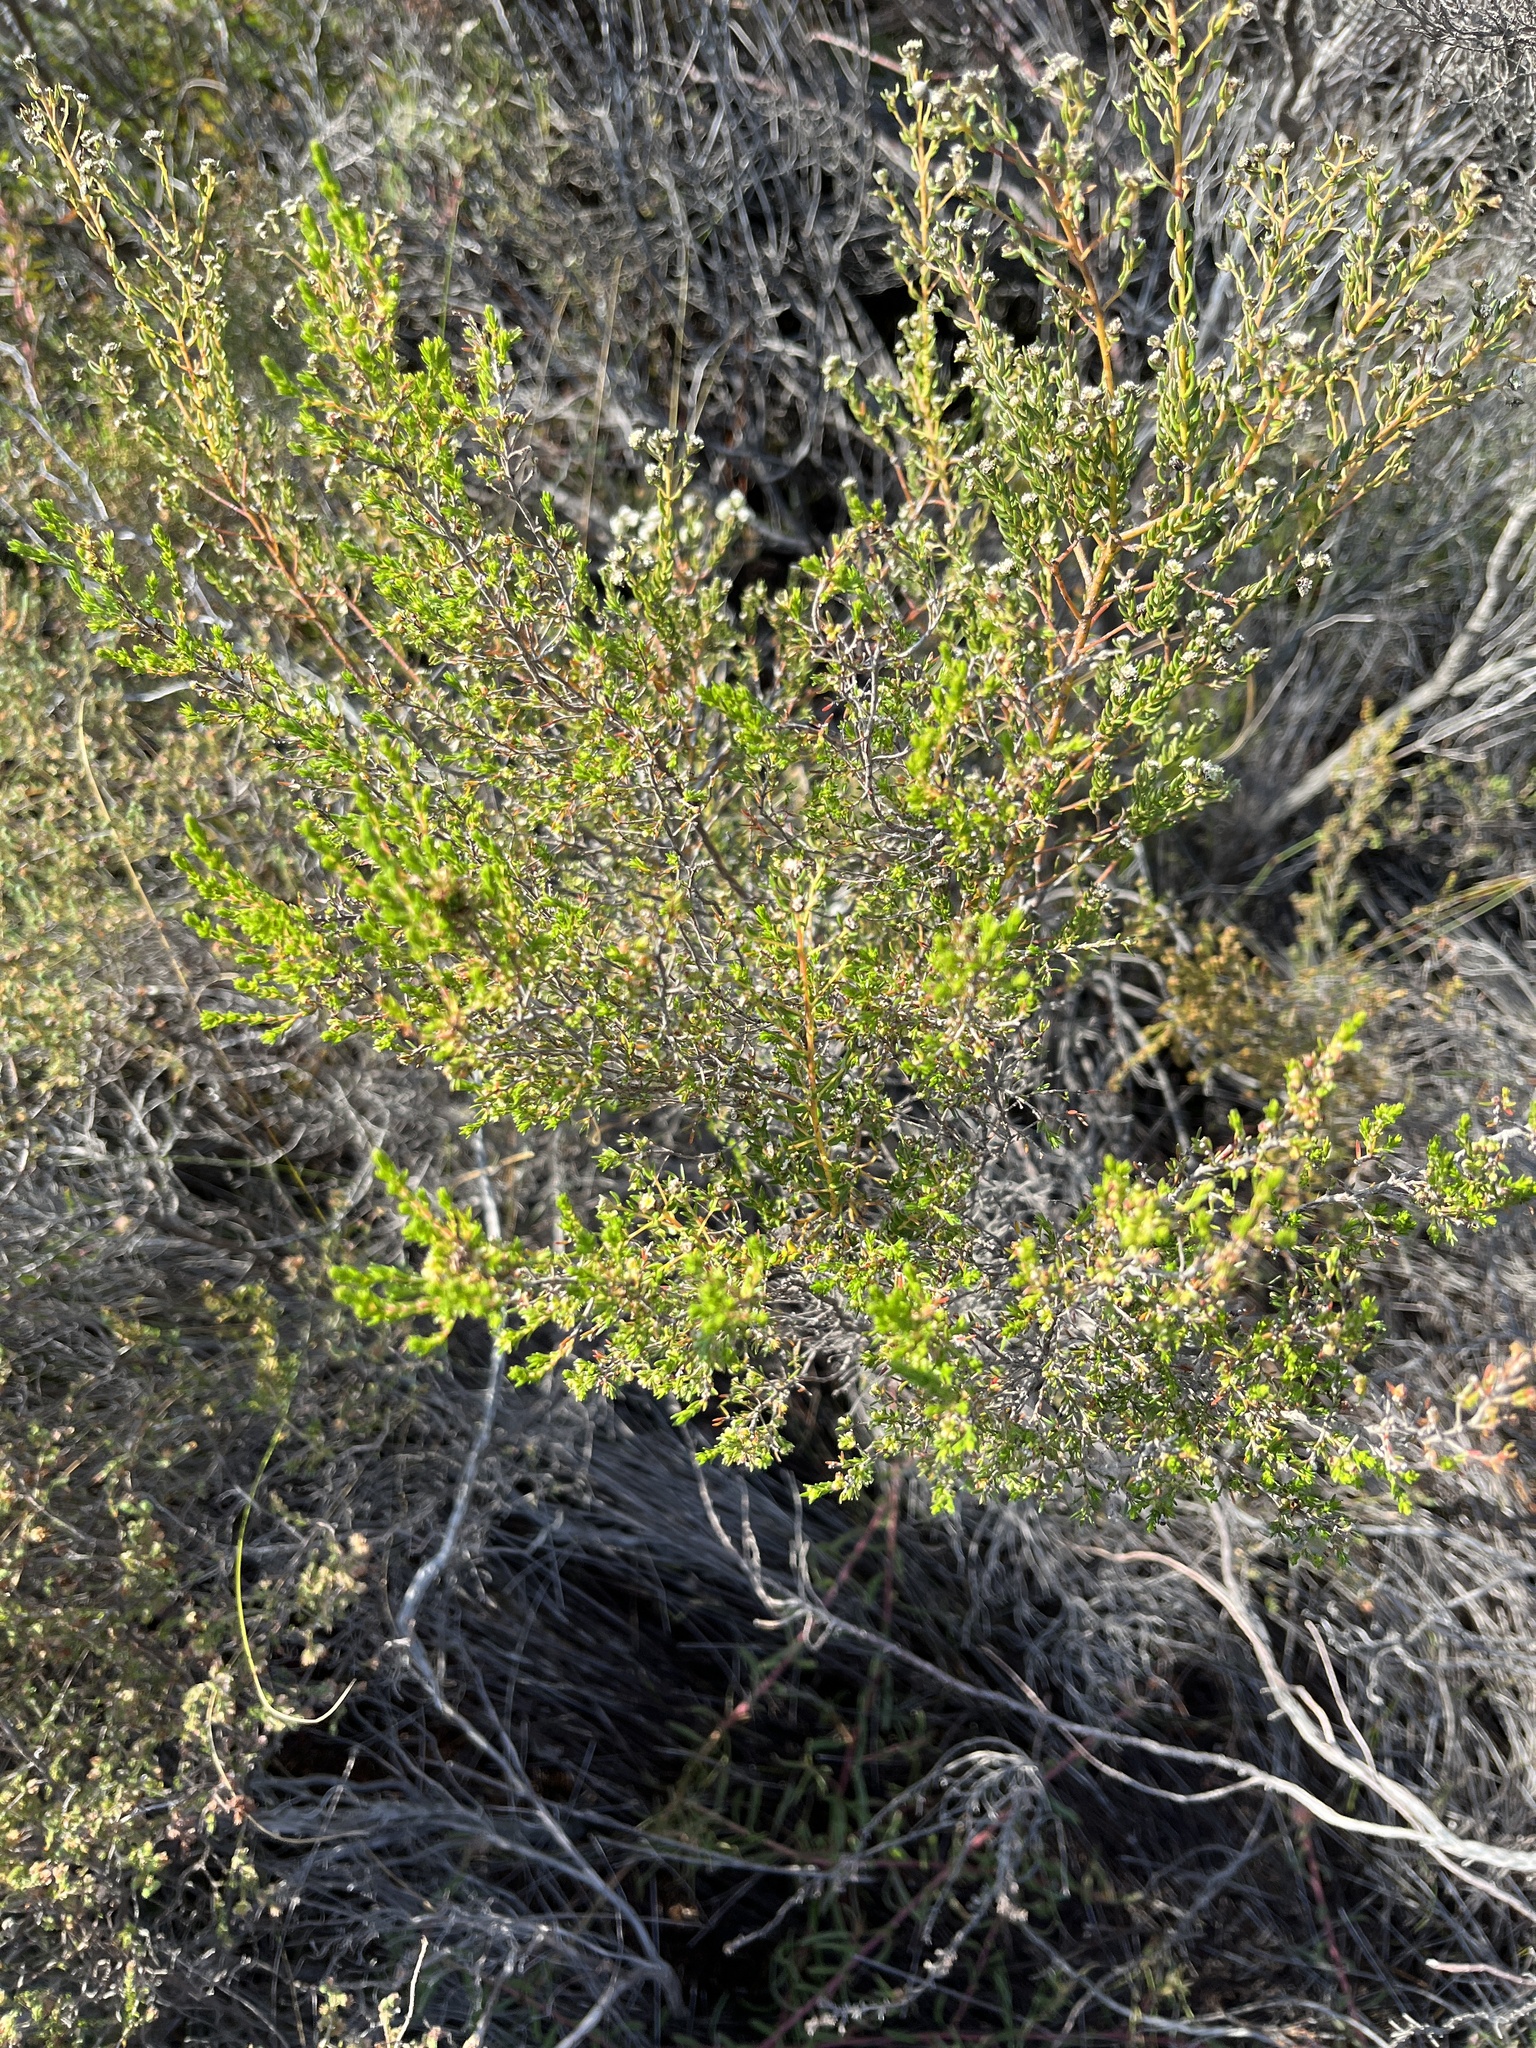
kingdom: Plantae
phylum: Tracheophyta
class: Magnoliopsida
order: Rosales
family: Rhamnaceae
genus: Phylica
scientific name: Phylica parviflora
